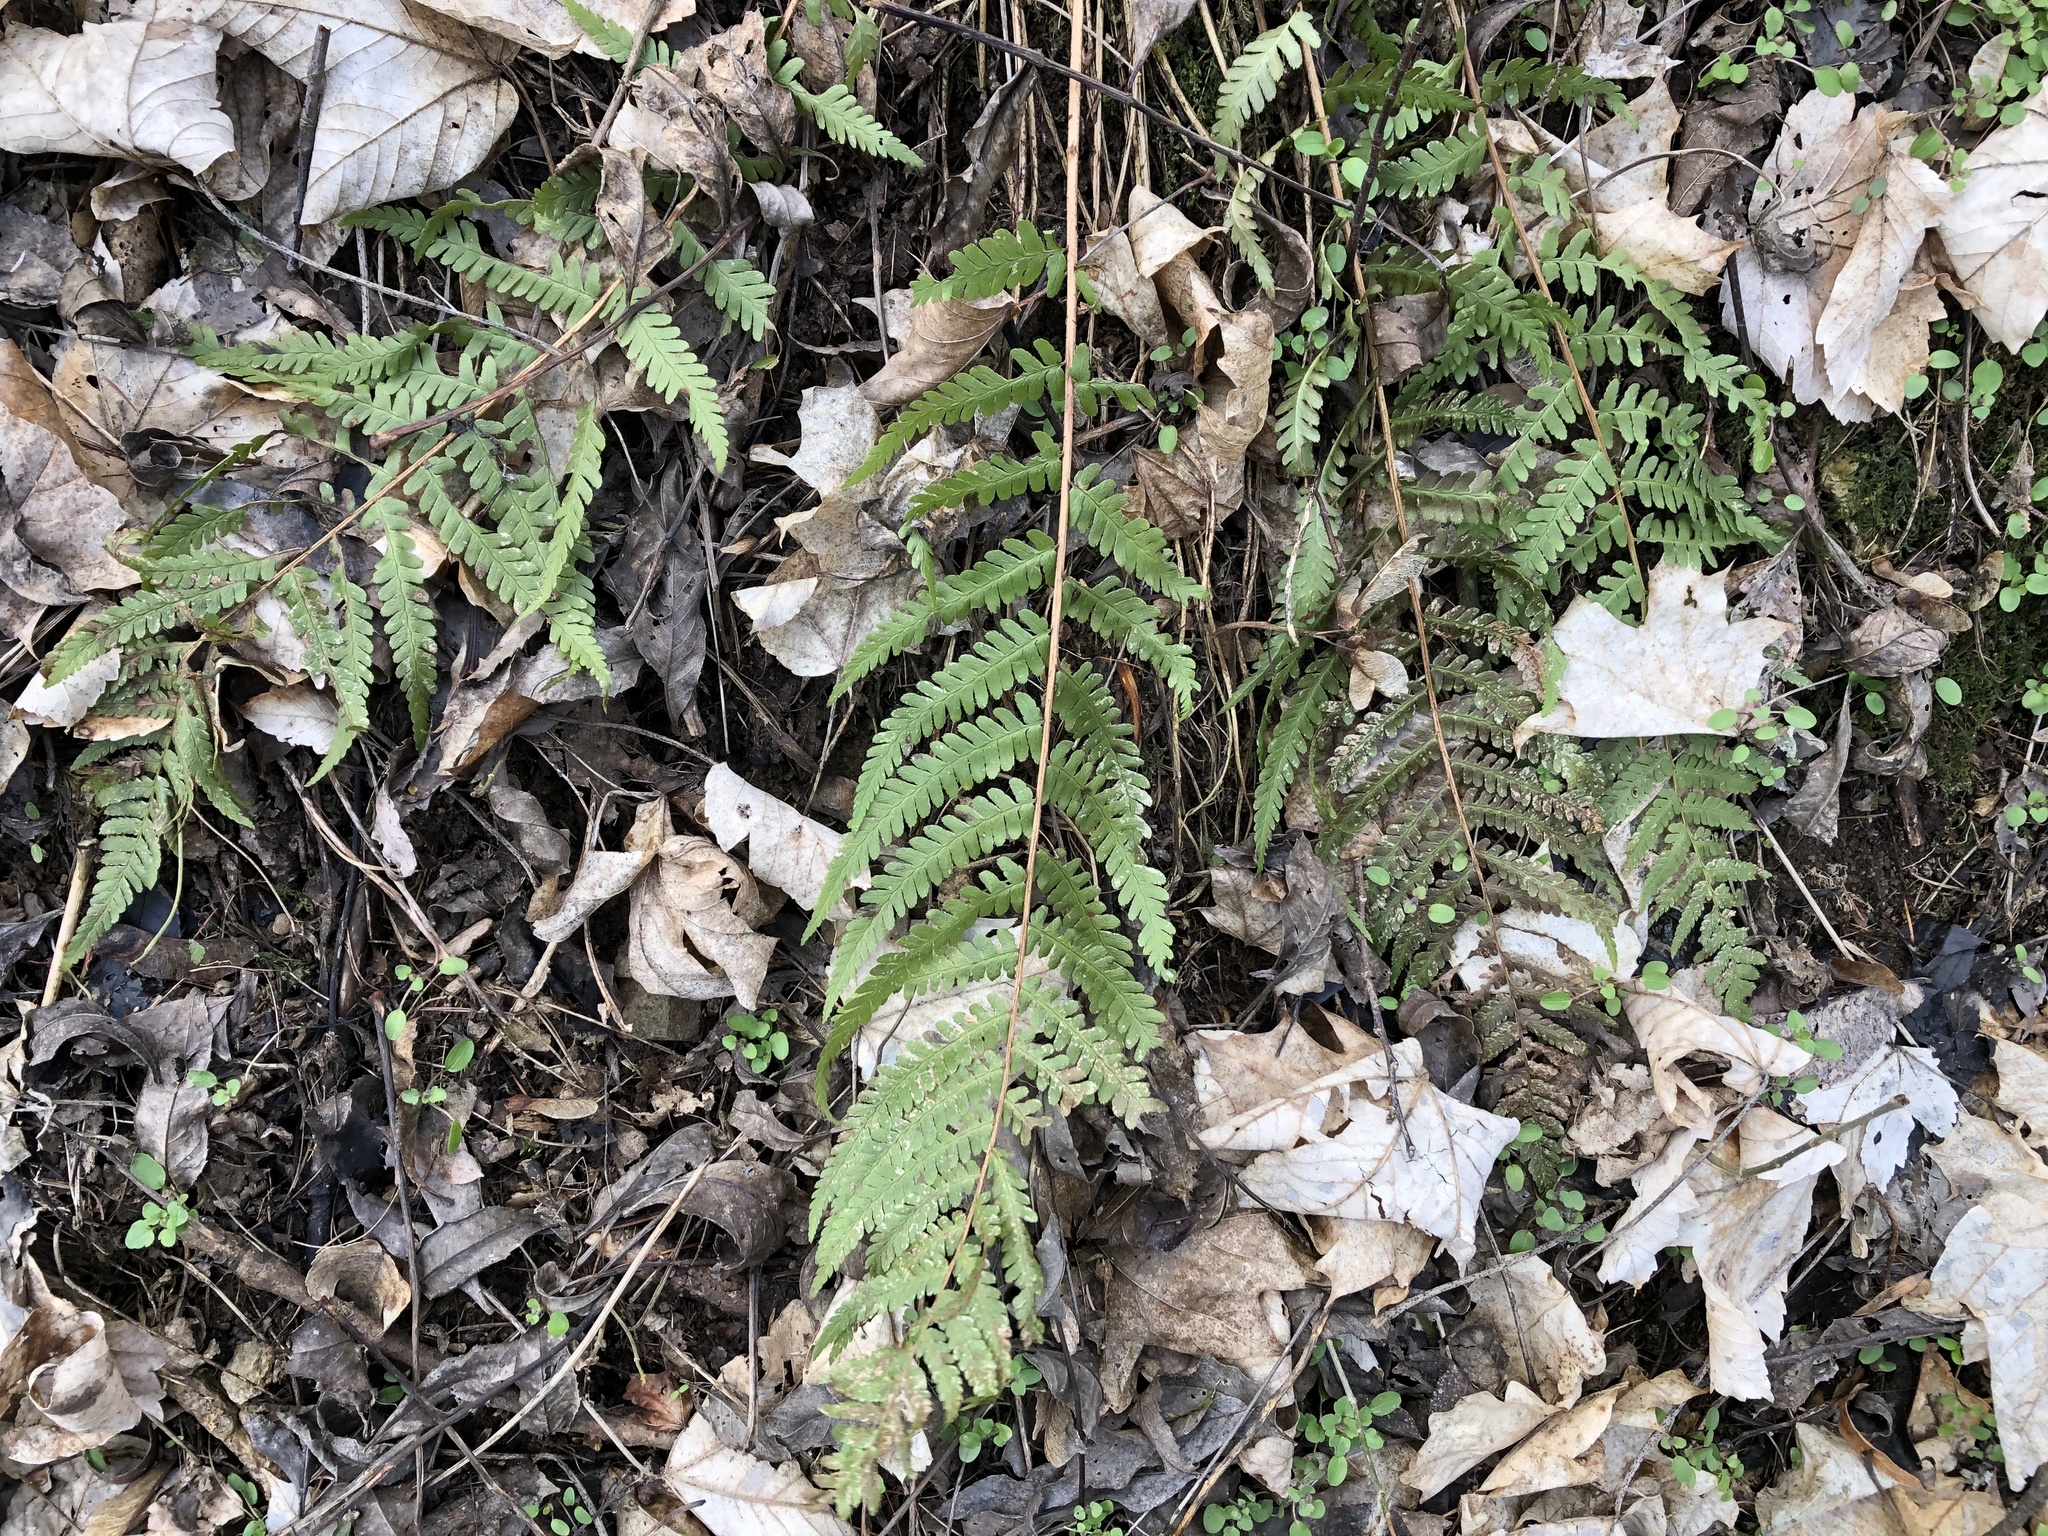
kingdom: Plantae
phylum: Tracheophyta
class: Polypodiopsida
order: Polypodiales
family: Dryopteridaceae
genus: Dryopteris
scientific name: Dryopteris filix-mas
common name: Male fern
